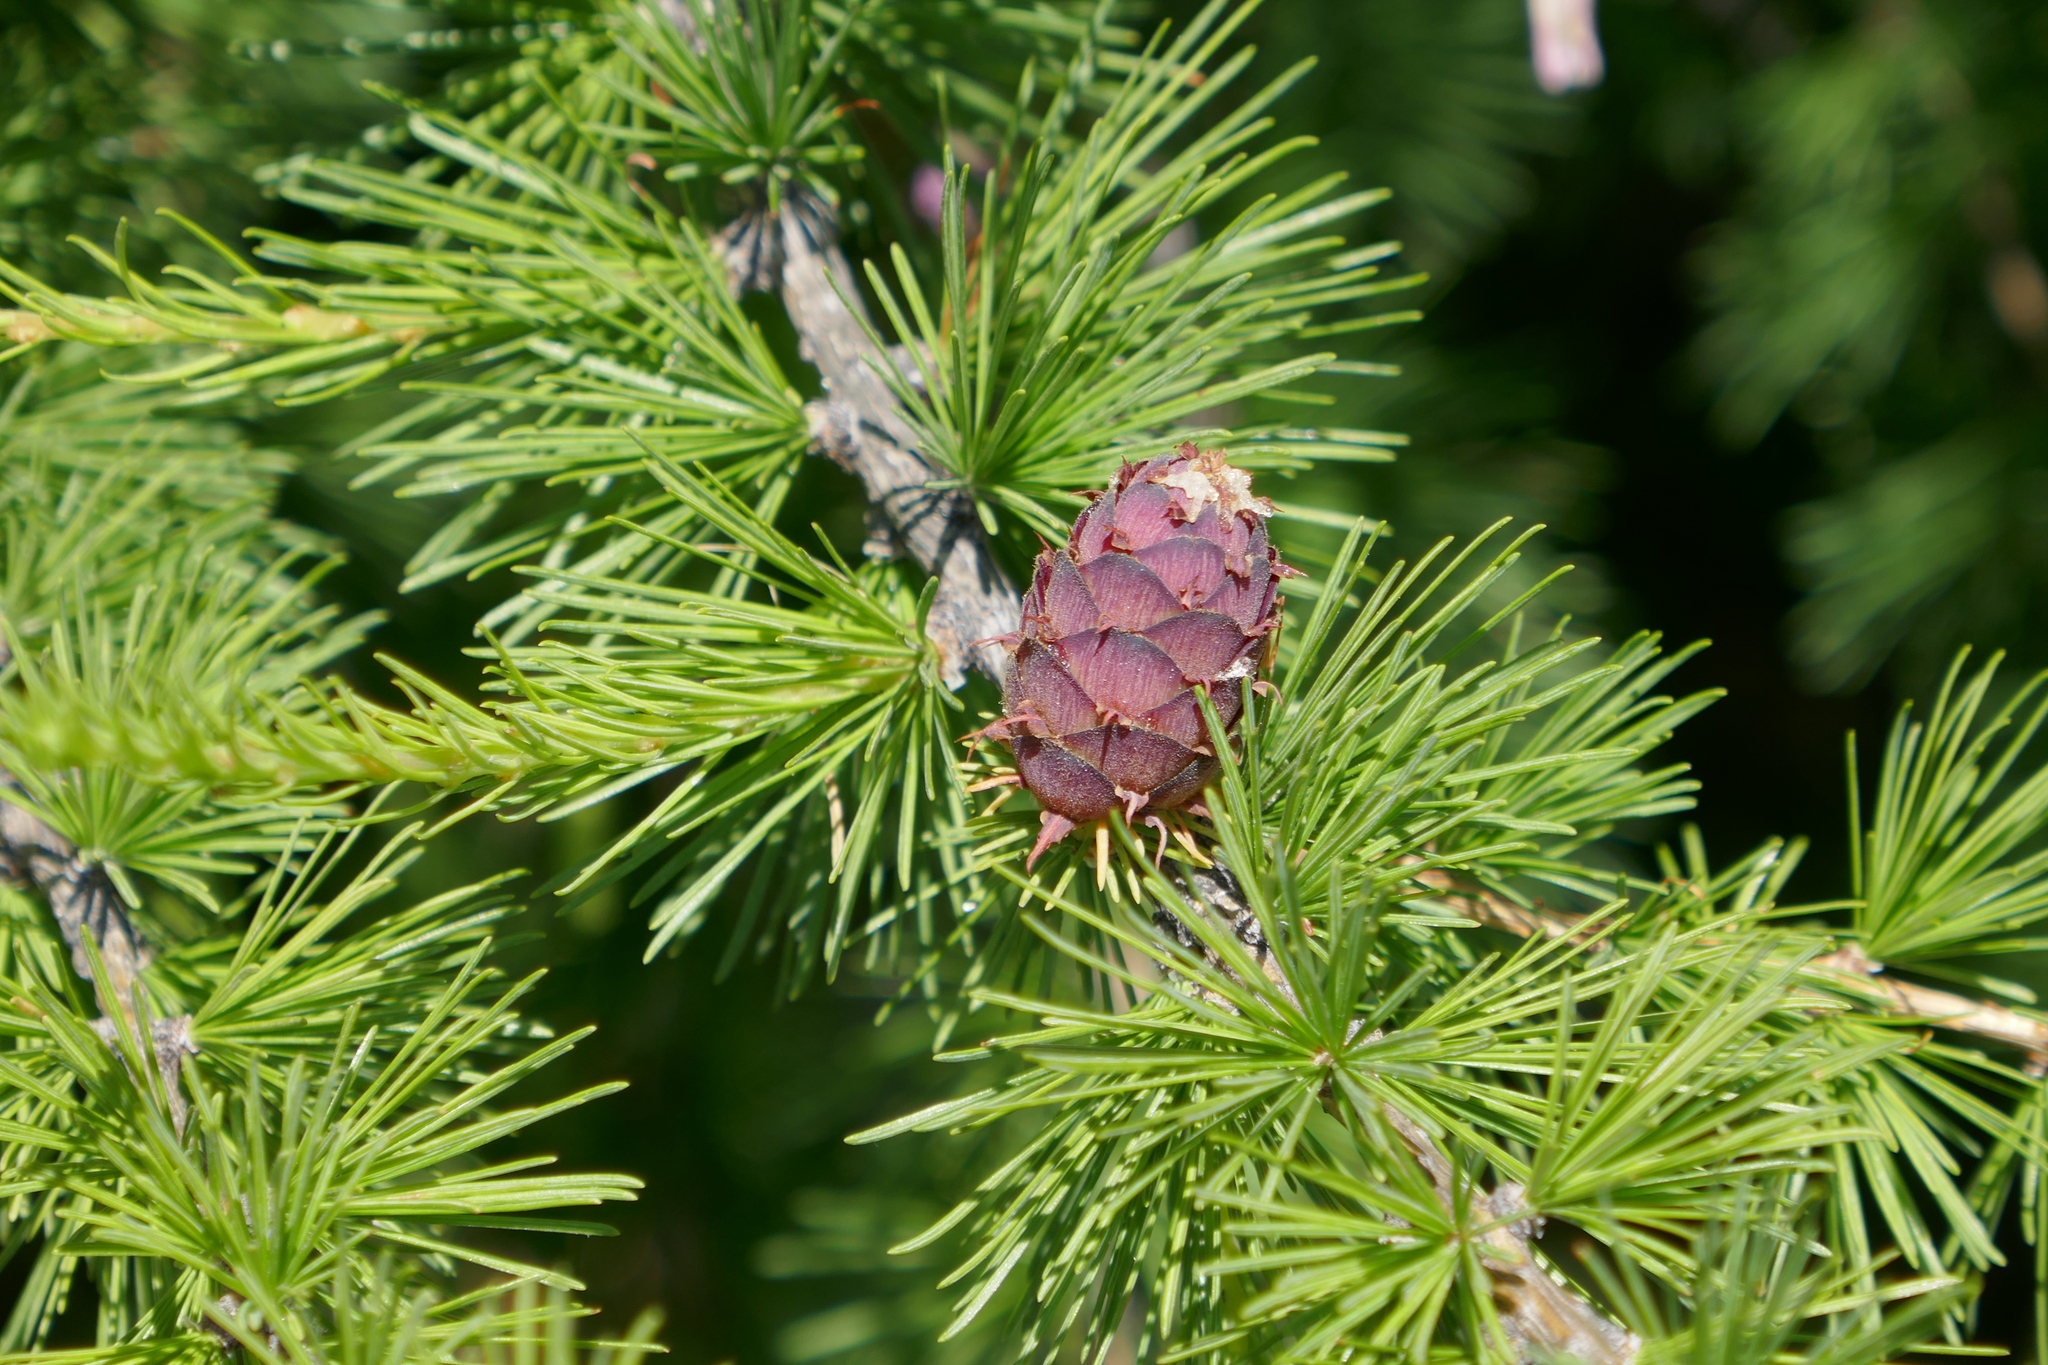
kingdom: Plantae
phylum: Tracheophyta
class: Pinopsida
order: Pinales
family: Pinaceae
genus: Larix
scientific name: Larix decidua
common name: European larch
